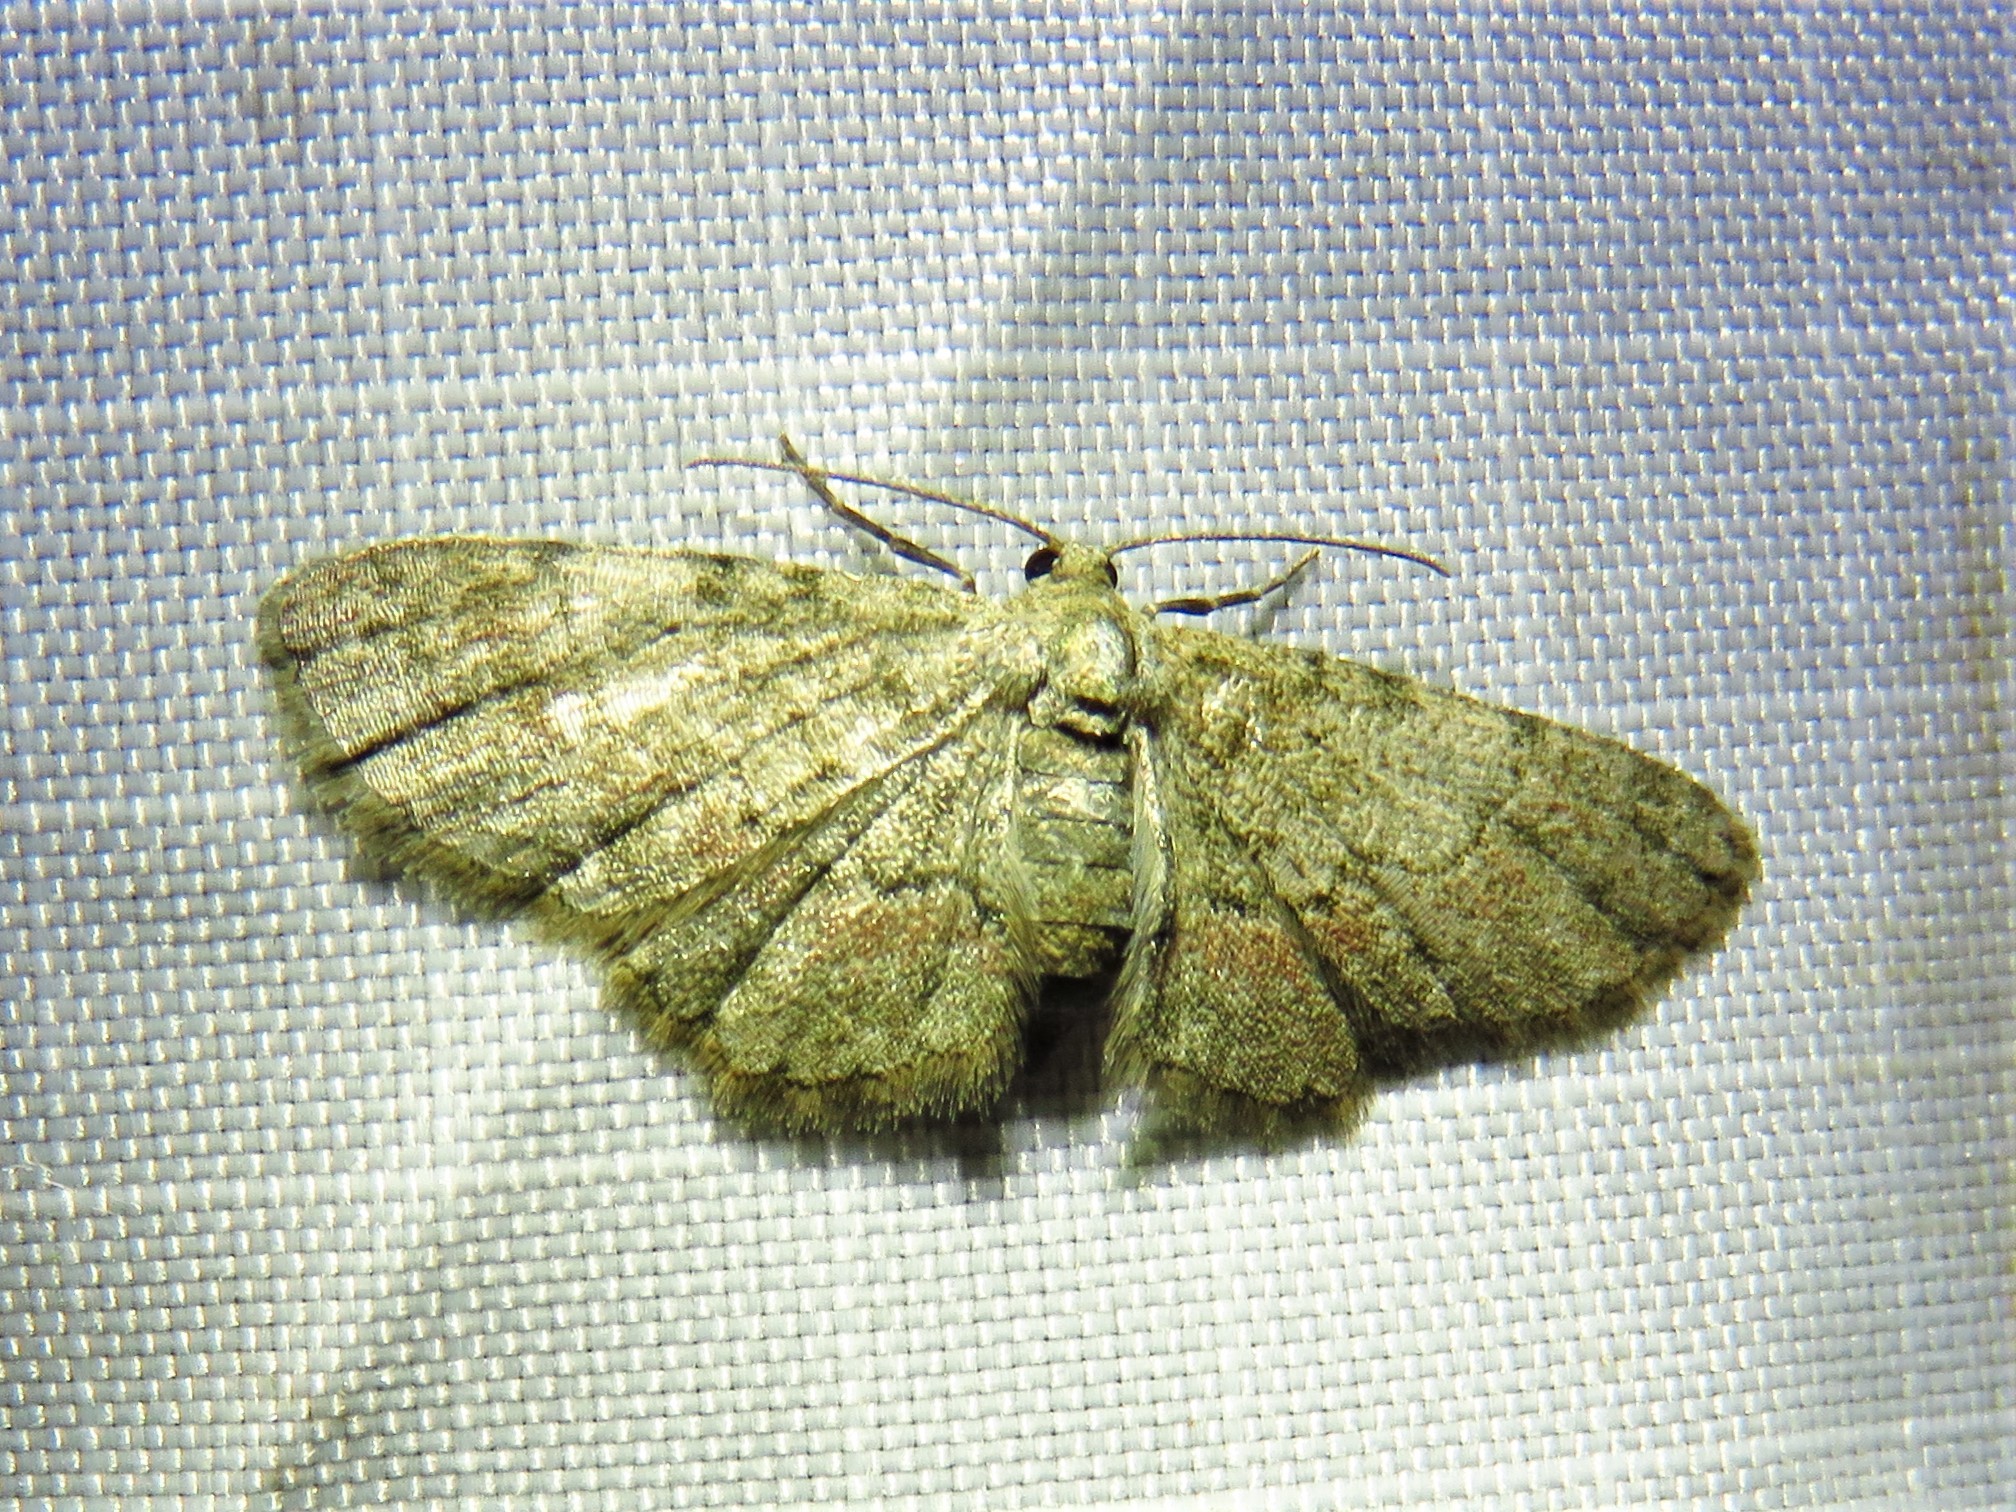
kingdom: Animalia
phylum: Arthropoda
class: Insecta
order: Lepidoptera
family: Geometridae
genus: Glenoides
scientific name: Glenoides texanaria
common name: Texas gray
